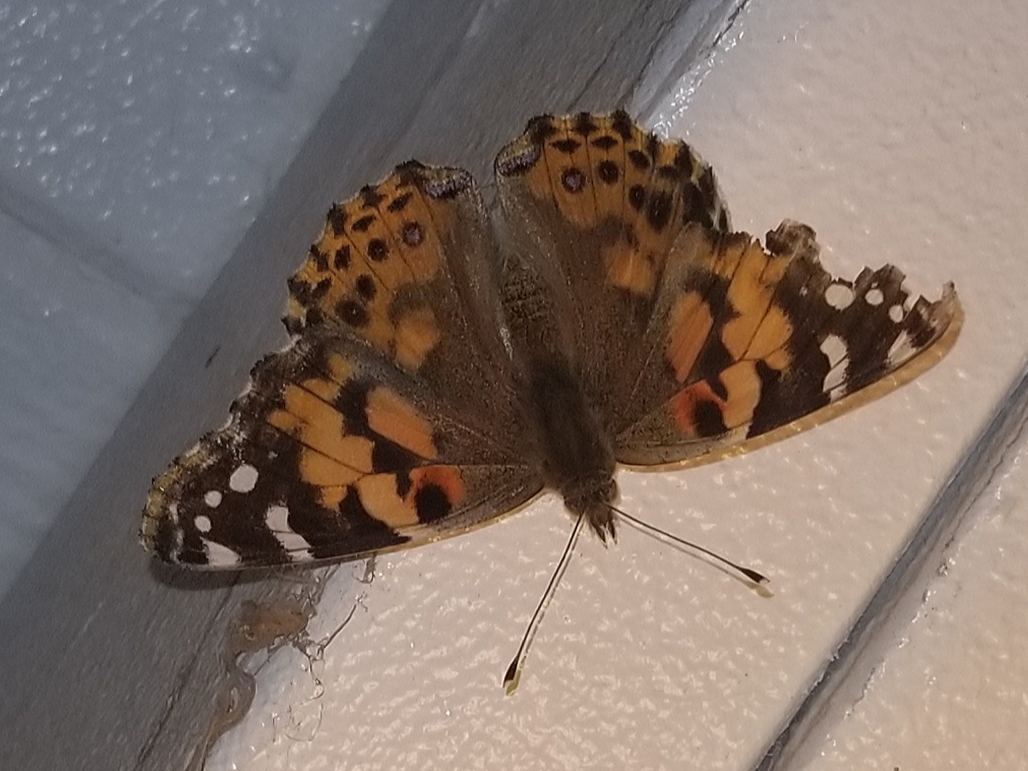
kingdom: Animalia
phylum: Arthropoda
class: Insecta
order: Lepidoptera
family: Nymphalidae
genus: Vanessa
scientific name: Vanessa cardui
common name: Painted lady
